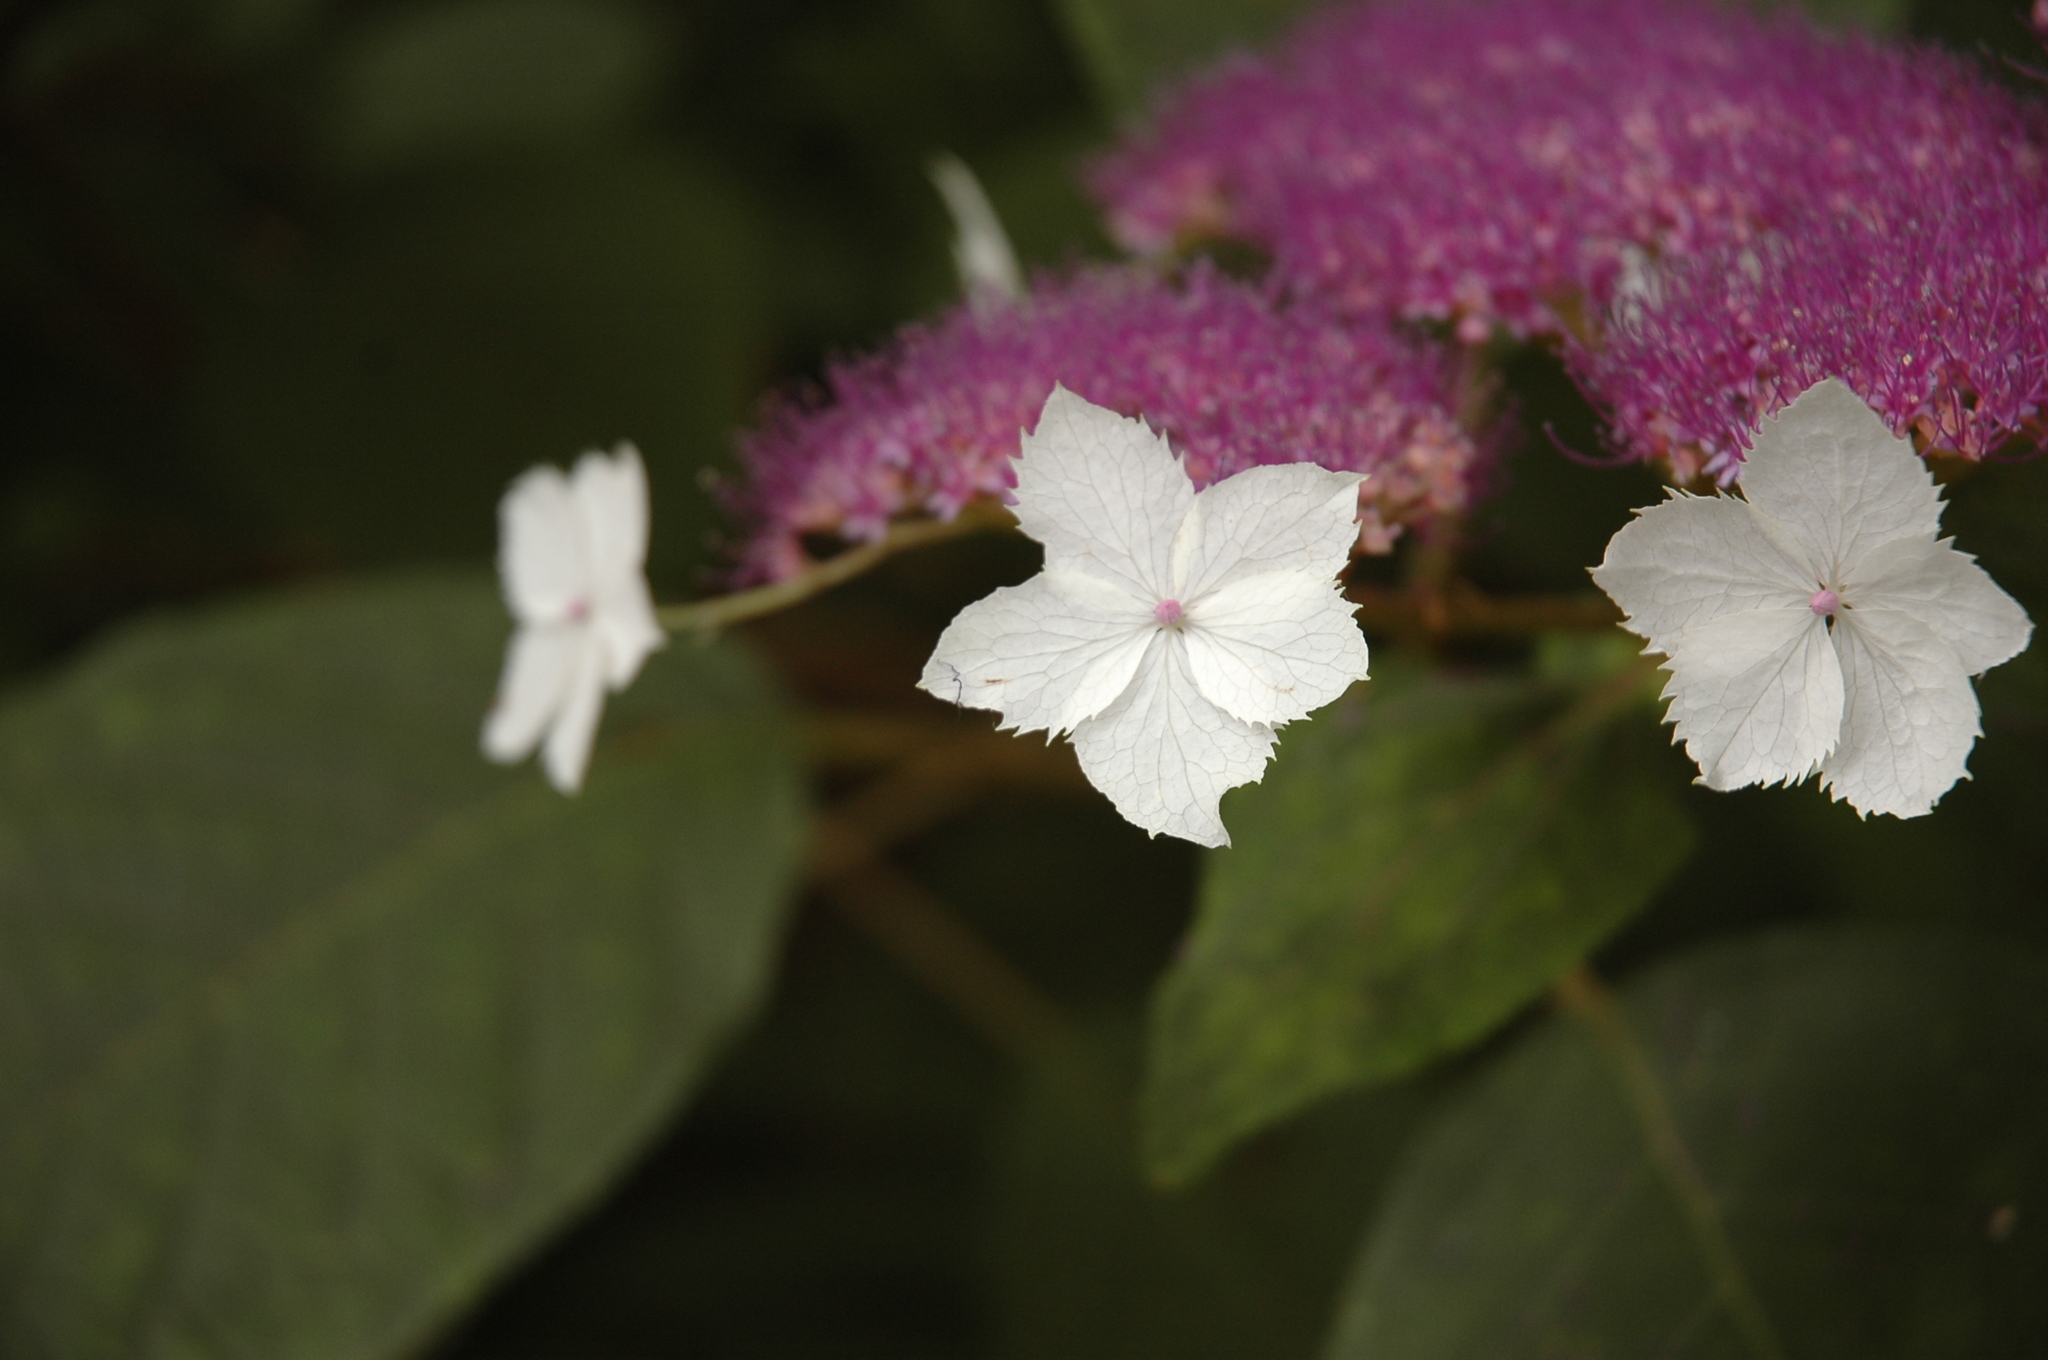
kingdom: Plantae
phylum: Tracheophyta
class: Magnoliopsida
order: Cornales
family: Hydrangeaceae
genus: Hydrangea
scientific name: Hydrangea aspera
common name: Rough-leaf hydrangea
